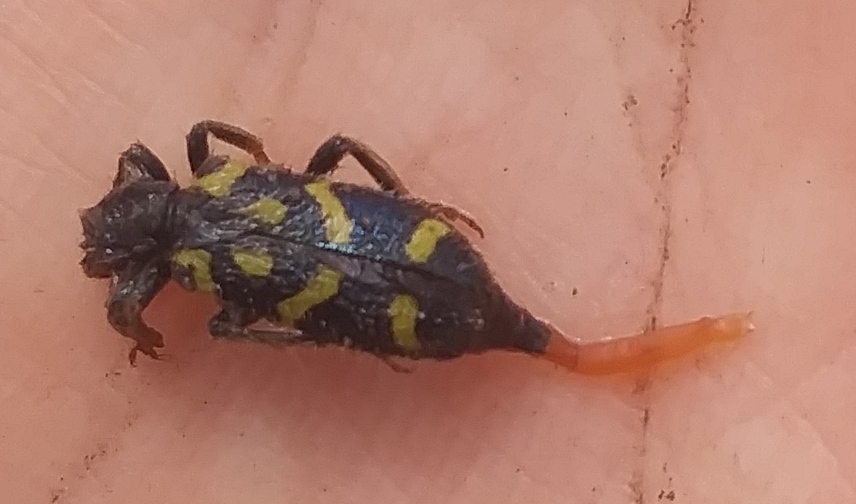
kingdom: Animalia
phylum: Arthropoda
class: Insecta
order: Coleoptera
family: Cleridae
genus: Trichodes
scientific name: Trichodes ornatus
